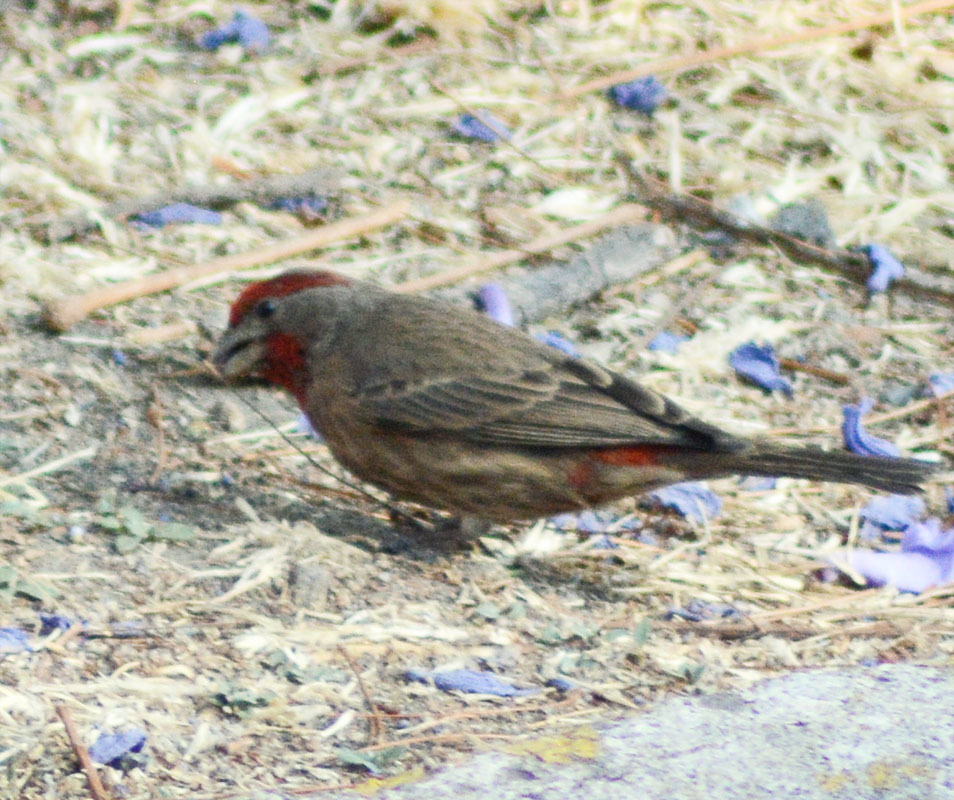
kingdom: Animalia
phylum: Chordata
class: Aves
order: Passeriformes
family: Fringillidae
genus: Haemorhous
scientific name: Haemorhous mexicanus
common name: House finch
